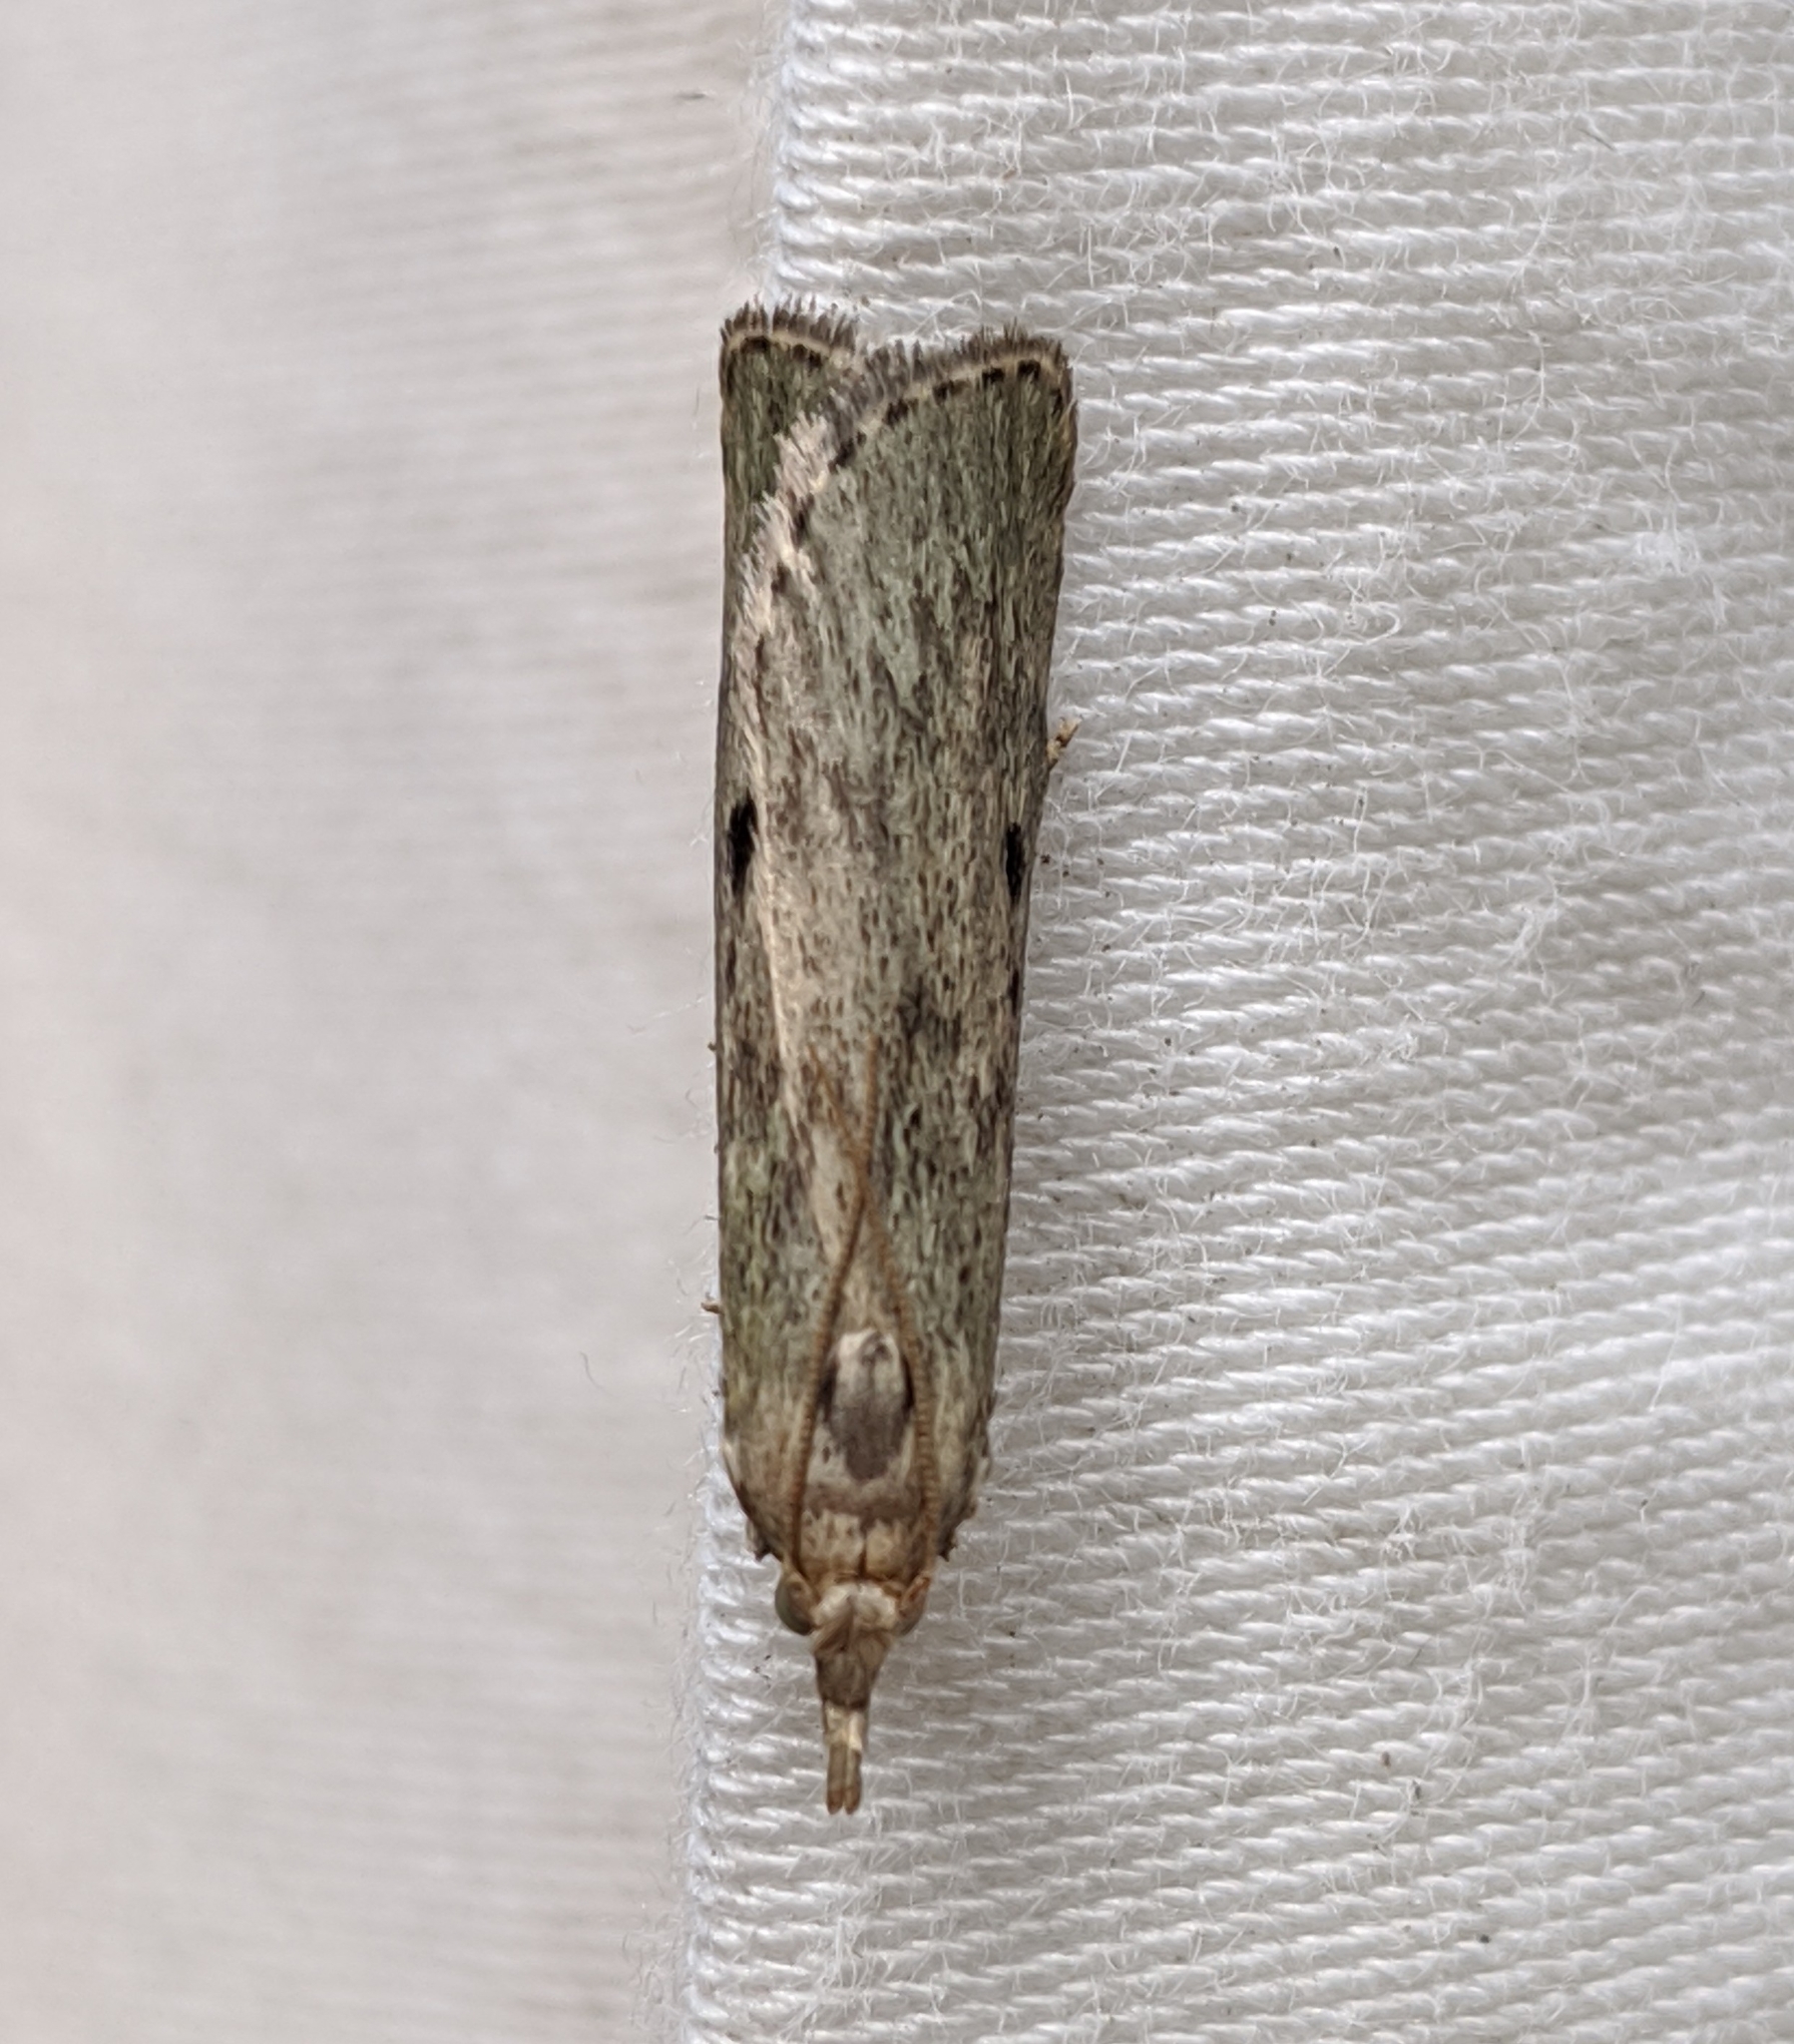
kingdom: Animalia
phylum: Arthropoda
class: Insecta
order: Lepidoptera
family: Pyralidae
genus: Aphomia
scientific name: Aphomia sociella
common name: Bee moth
